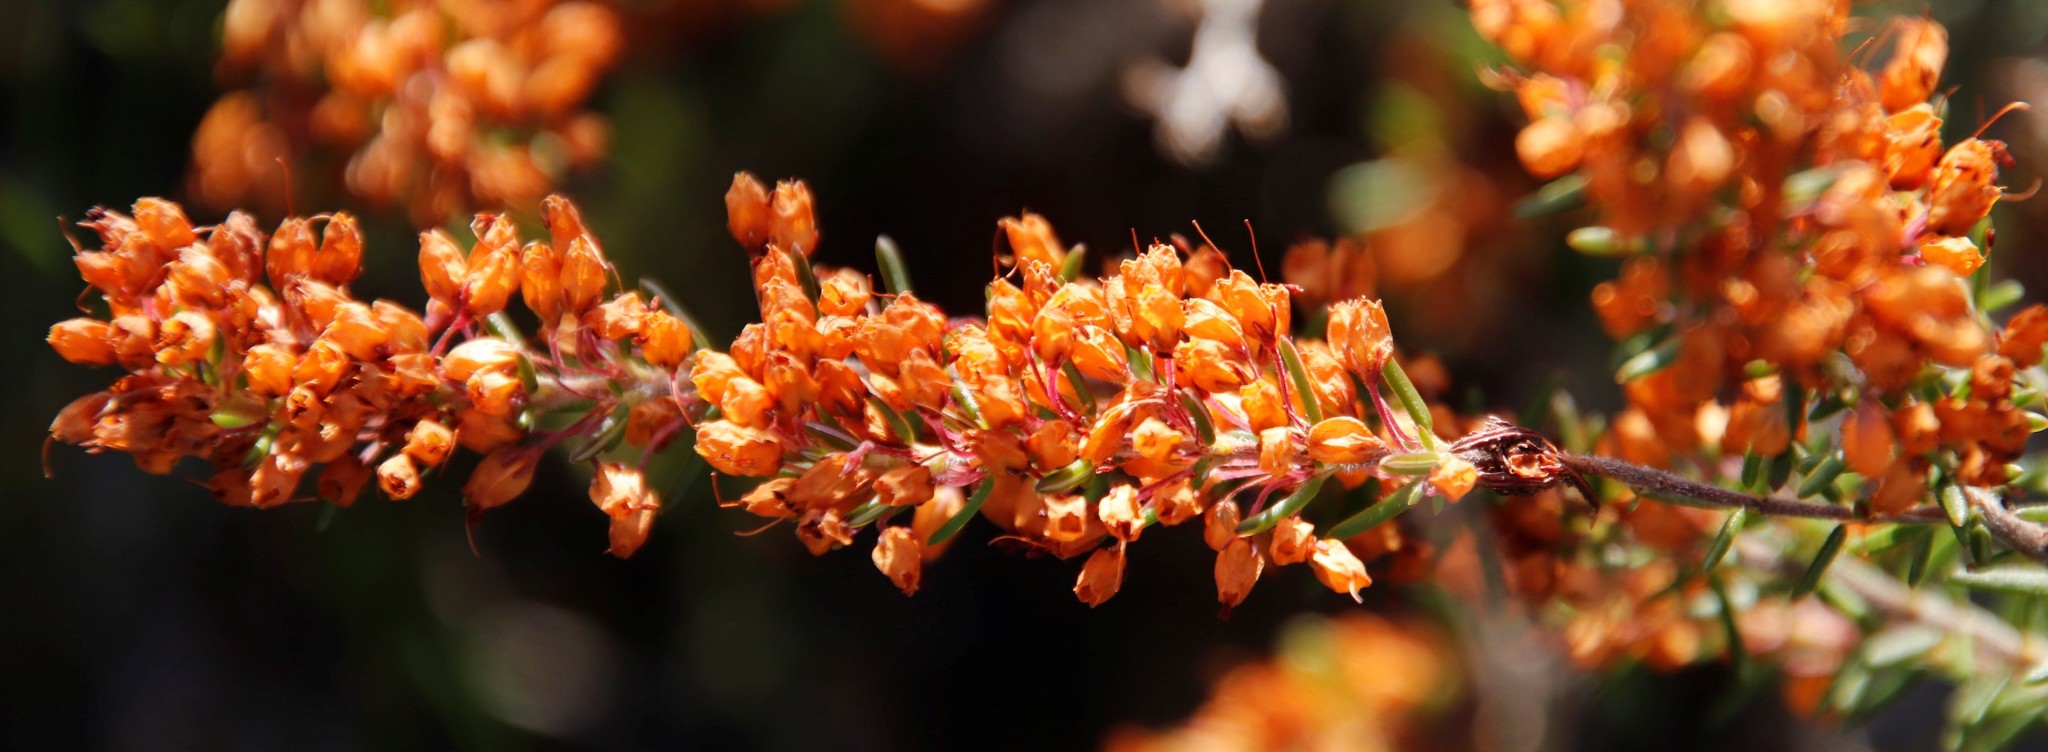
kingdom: Plantae
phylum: Tracheophyta
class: Magnoliopsida
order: Ericales
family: Ericaceae
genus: Erica
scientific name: Erica nudiflora
